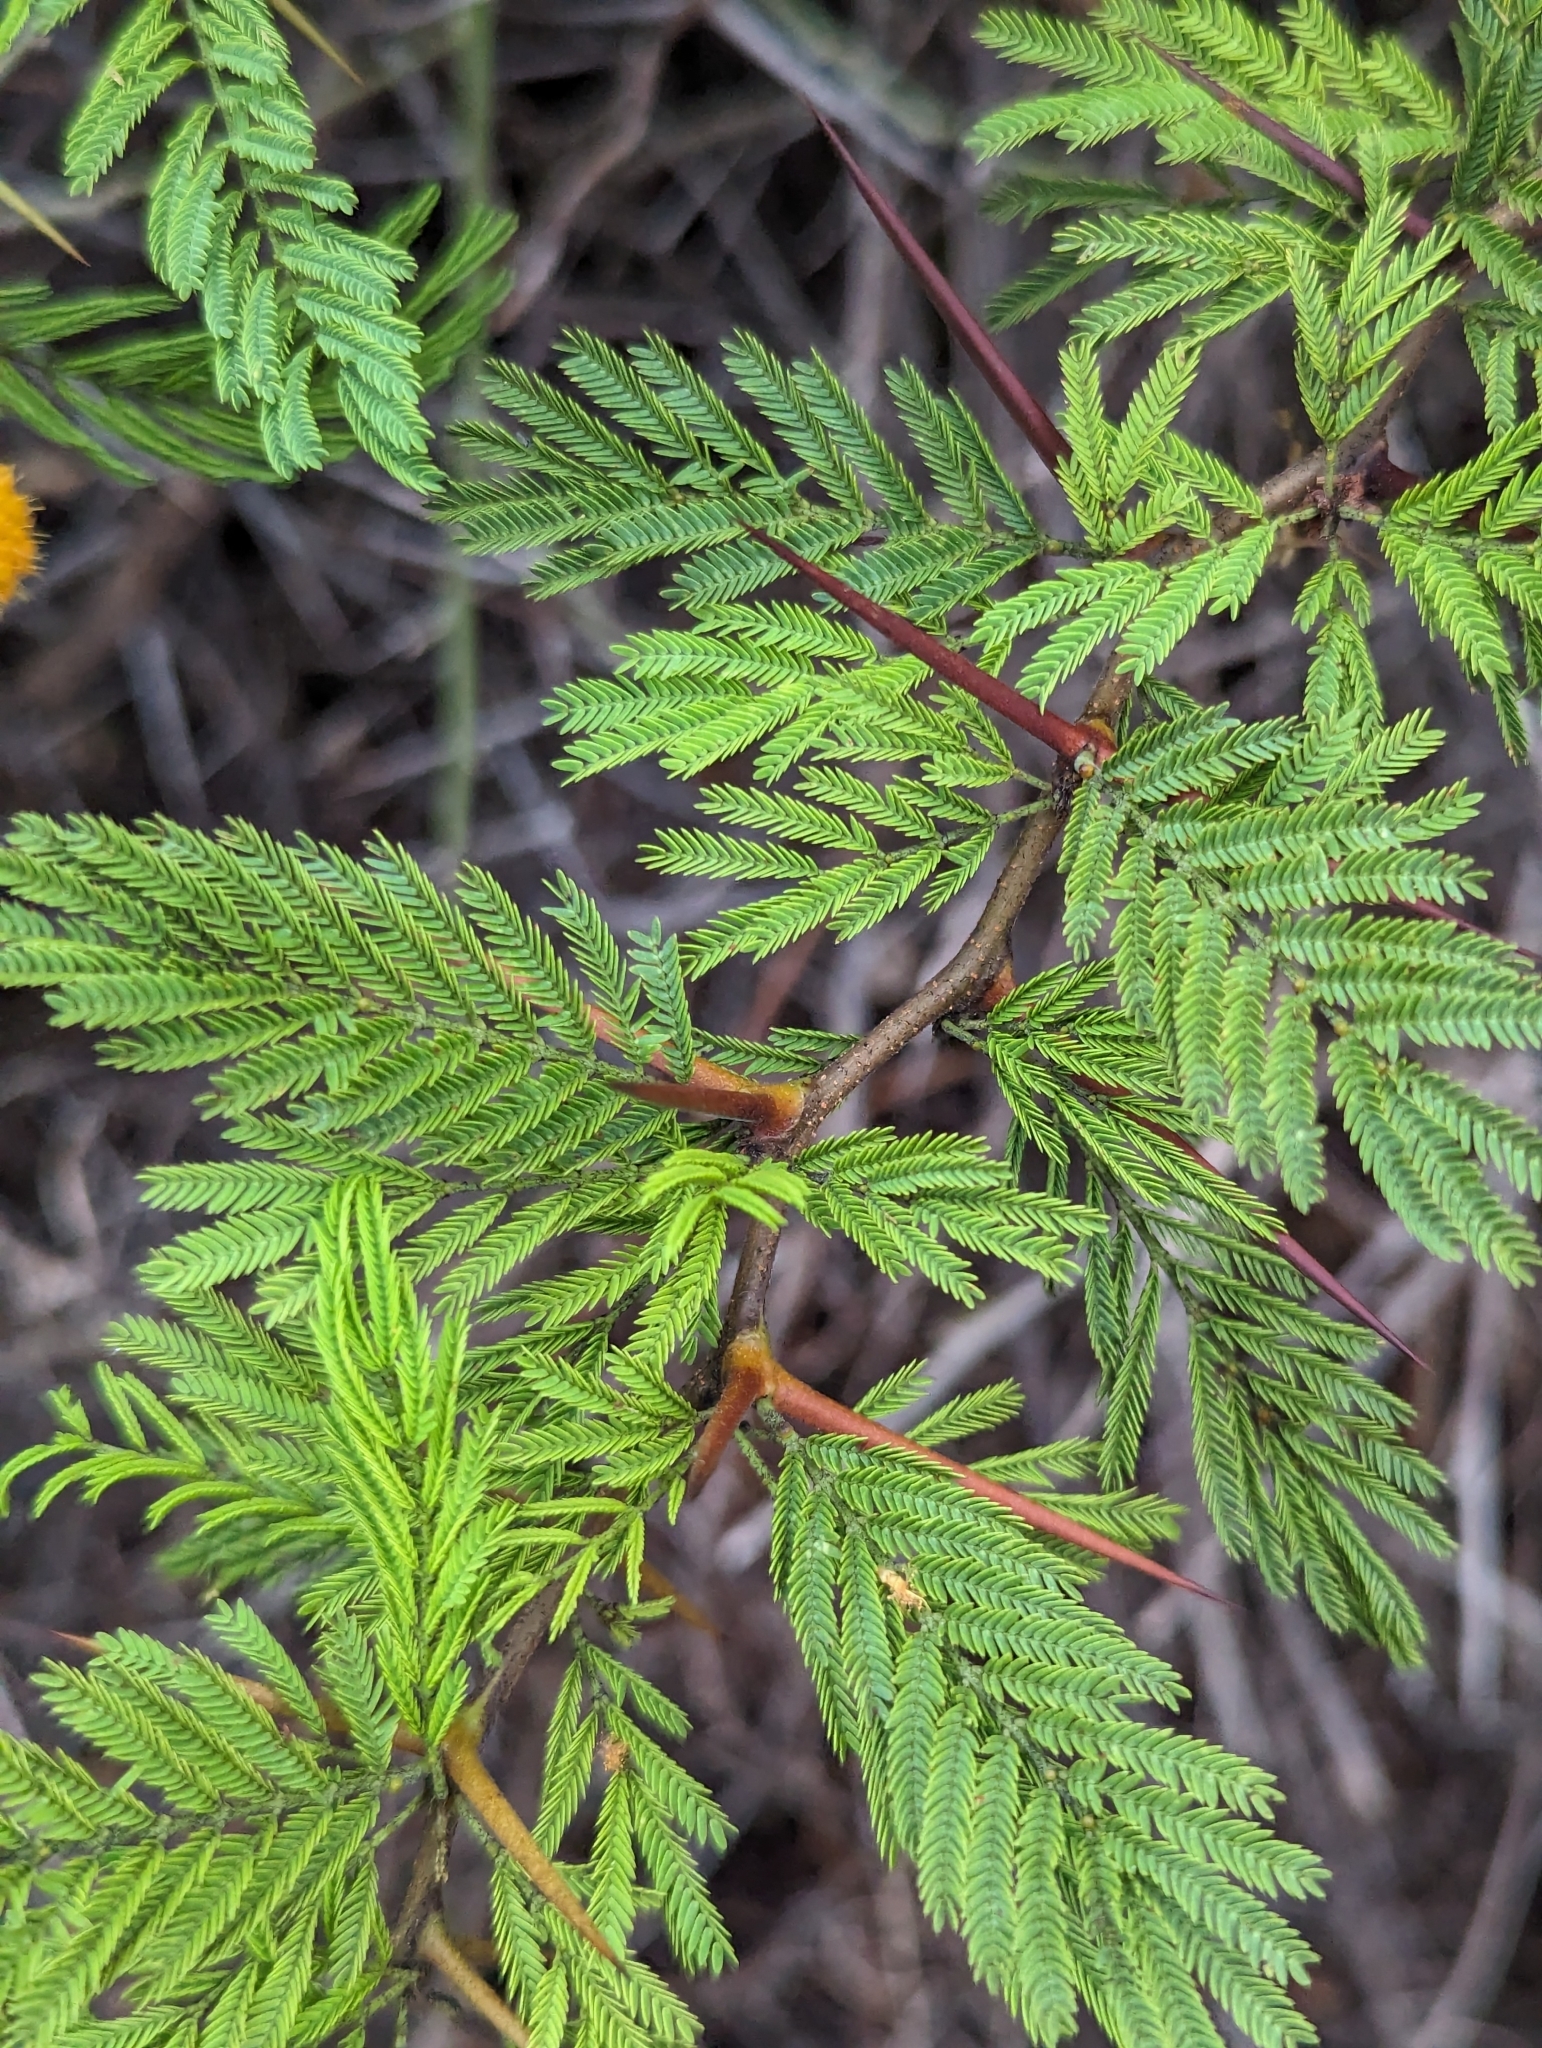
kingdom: Plantae
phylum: Tracheophyta
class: Magnoliopsida
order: Fabales
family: Fabaceae
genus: Vachellia
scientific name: Vachellia macracantha
